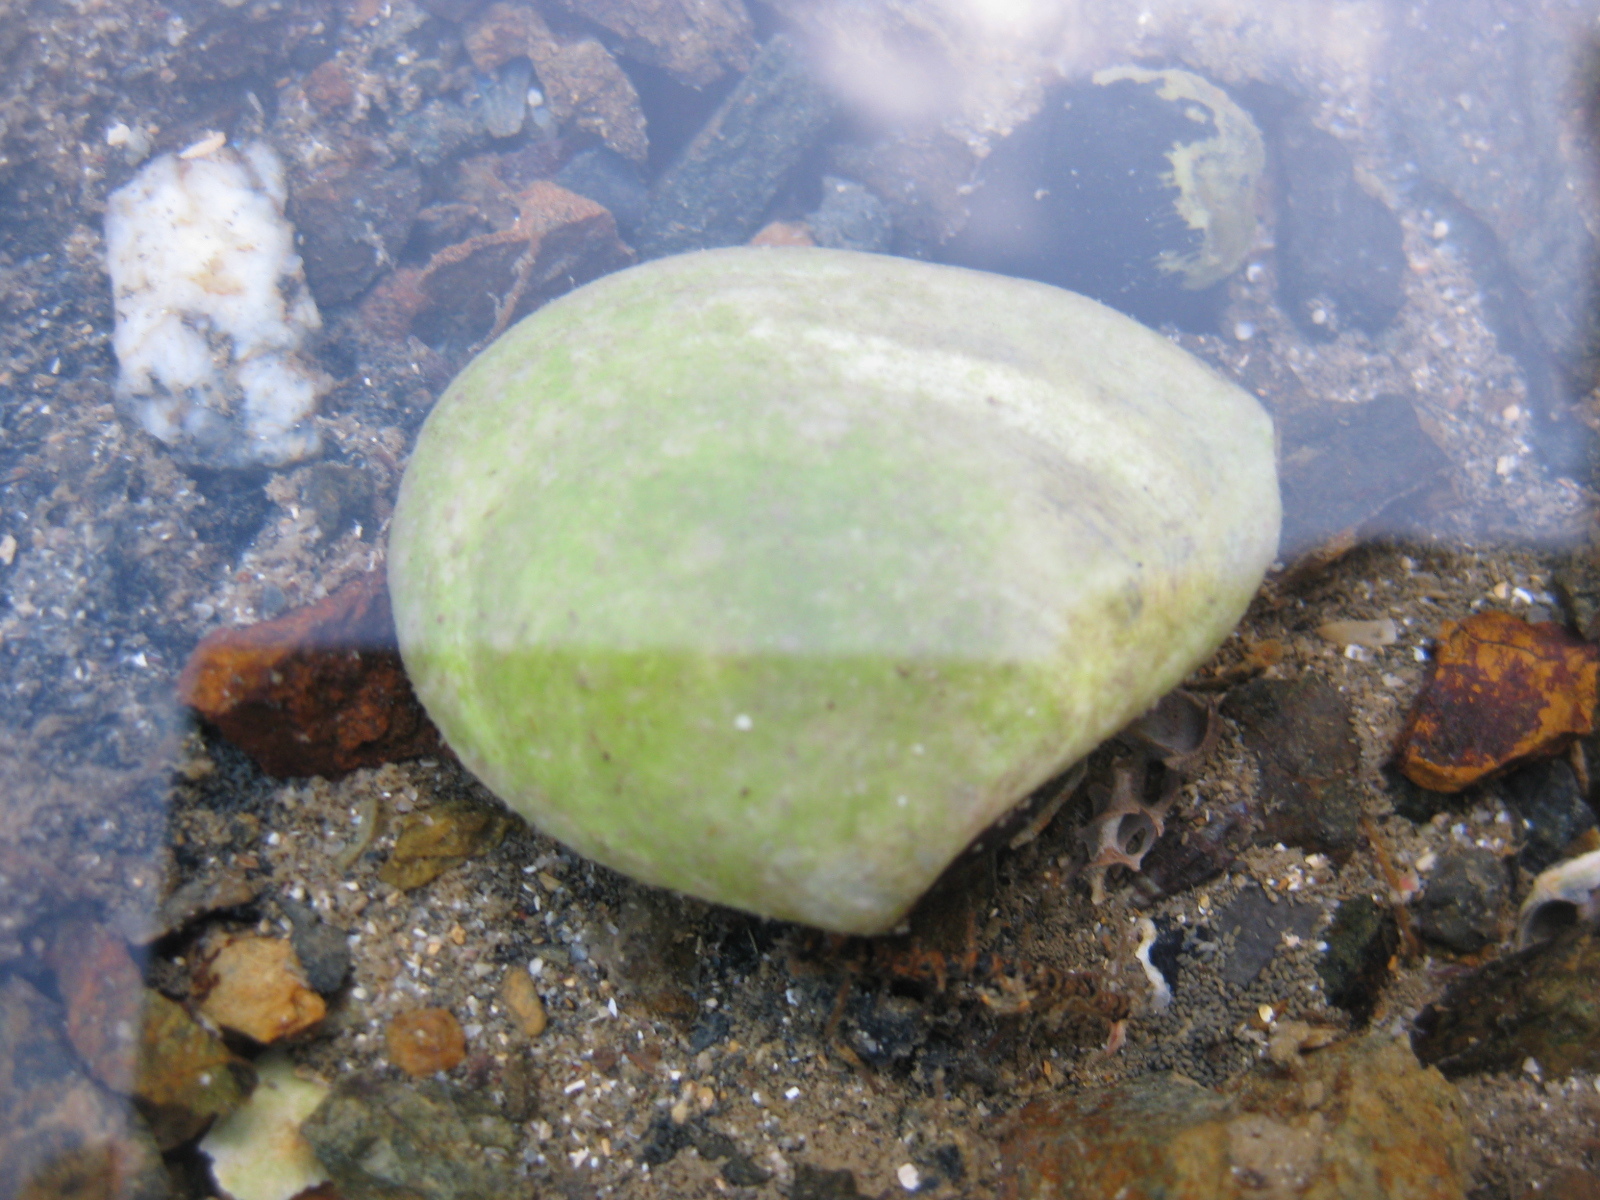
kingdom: Animalia
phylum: Mollusca
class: Bivalvia
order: Cardiida
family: Tellinidae
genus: Macomona
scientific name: Macomona liliana
